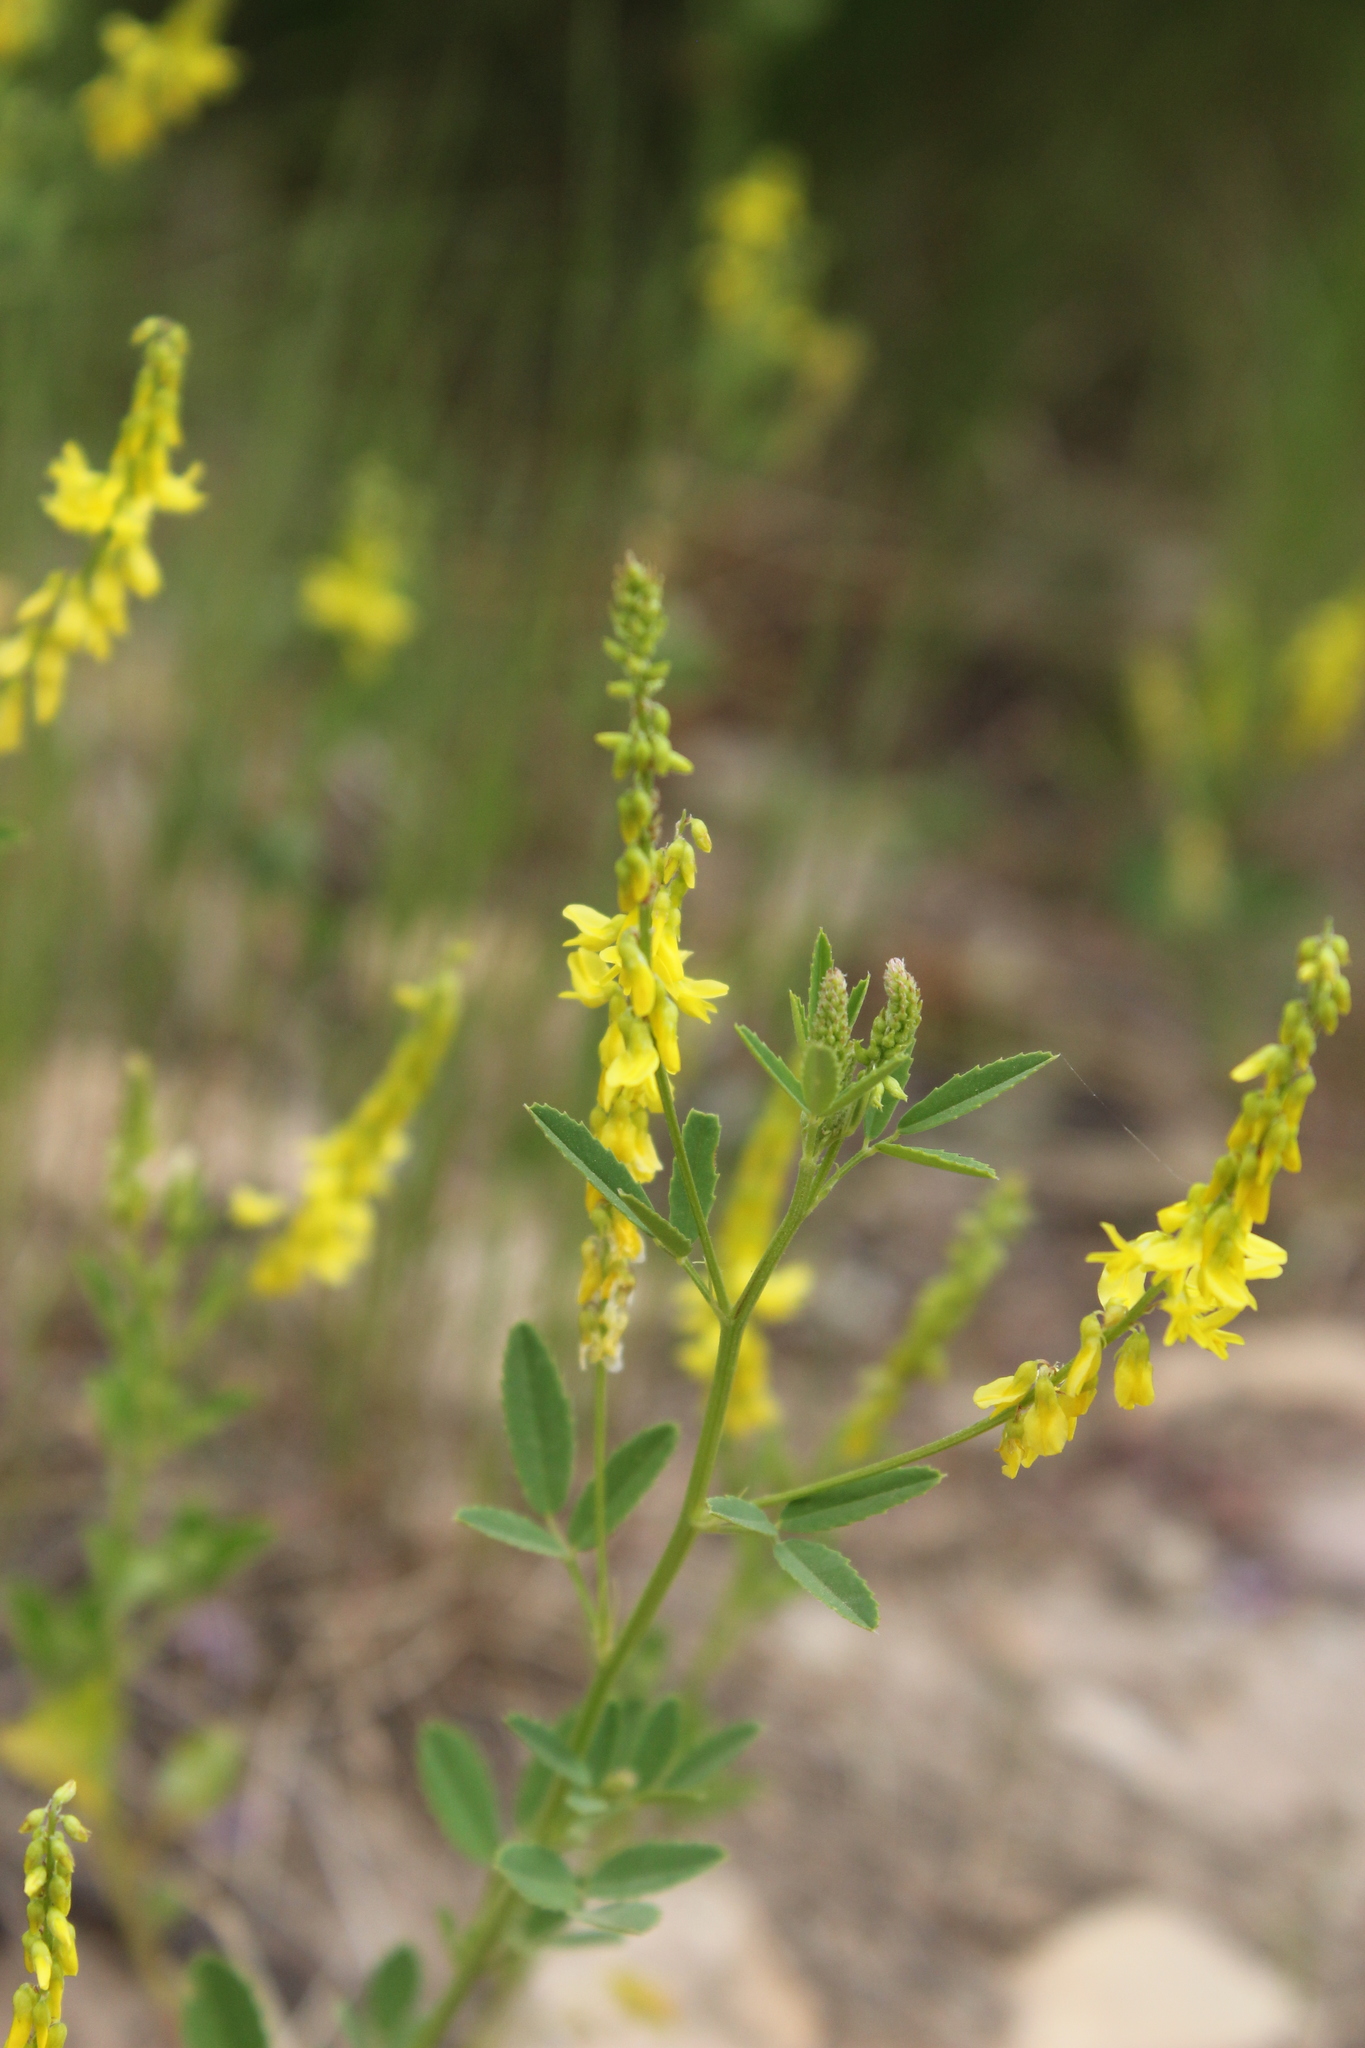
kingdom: Plantae
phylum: Tracheophyta
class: Magnoliopsida
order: Fabales
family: Fabaceae
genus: Melilotus
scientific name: Melilotus officinalis
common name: Sweetclover
